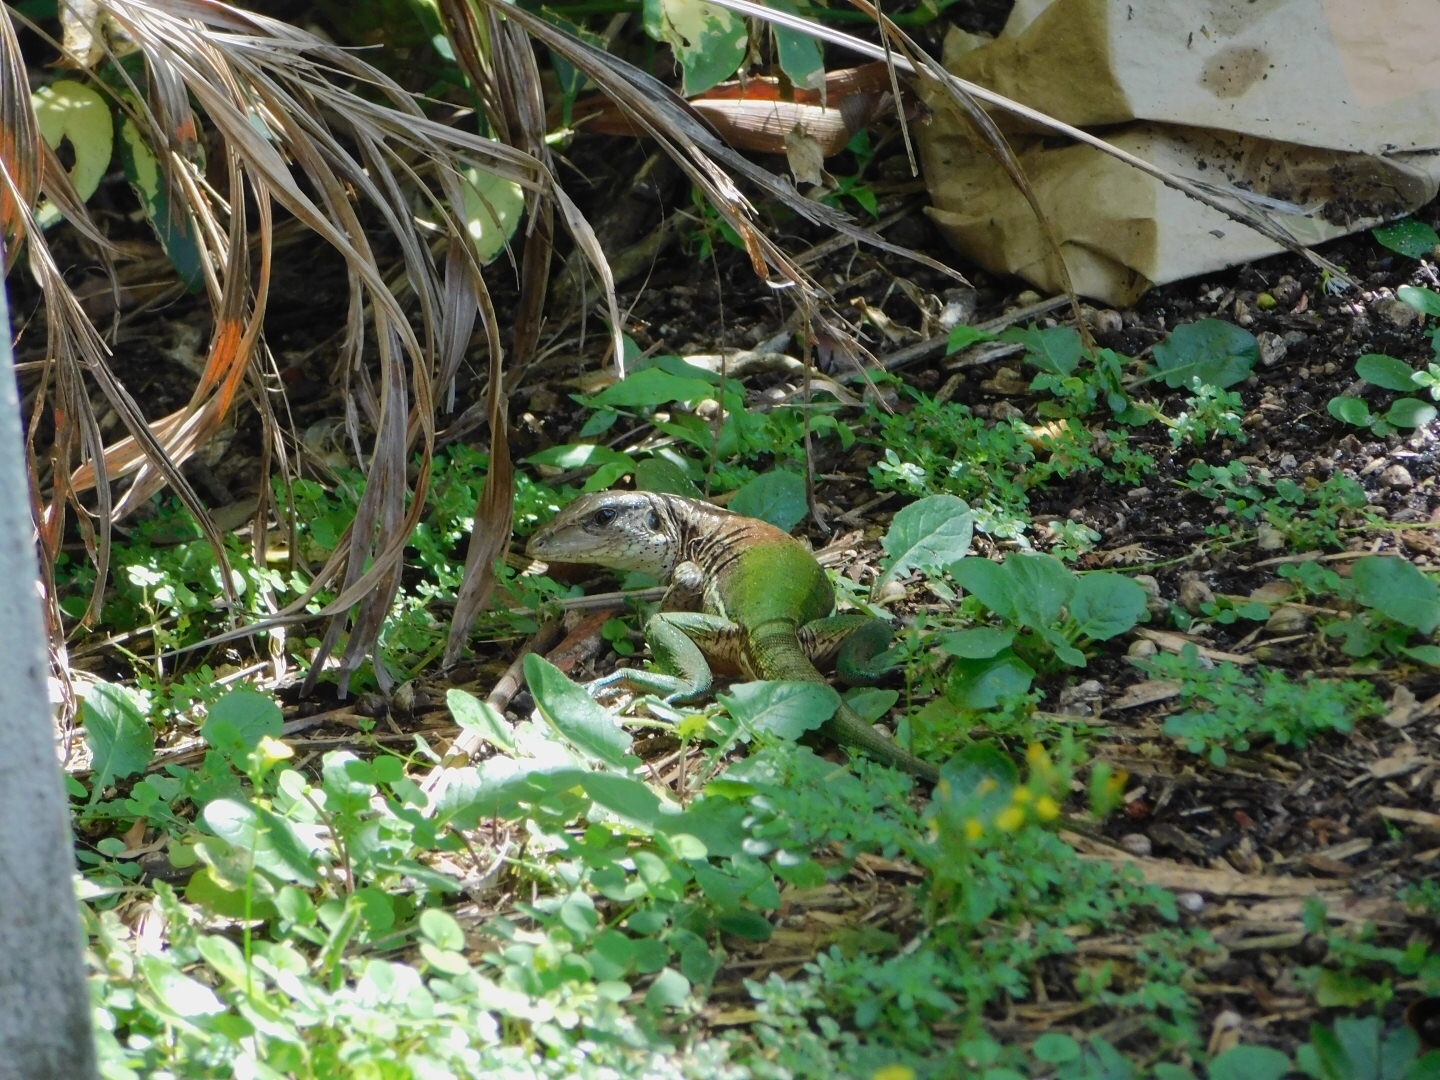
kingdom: Animalia
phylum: Chordata
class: Squamata
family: Teiidae
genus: Ameiva
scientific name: Ameiva ameiva
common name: Giant ameiva
